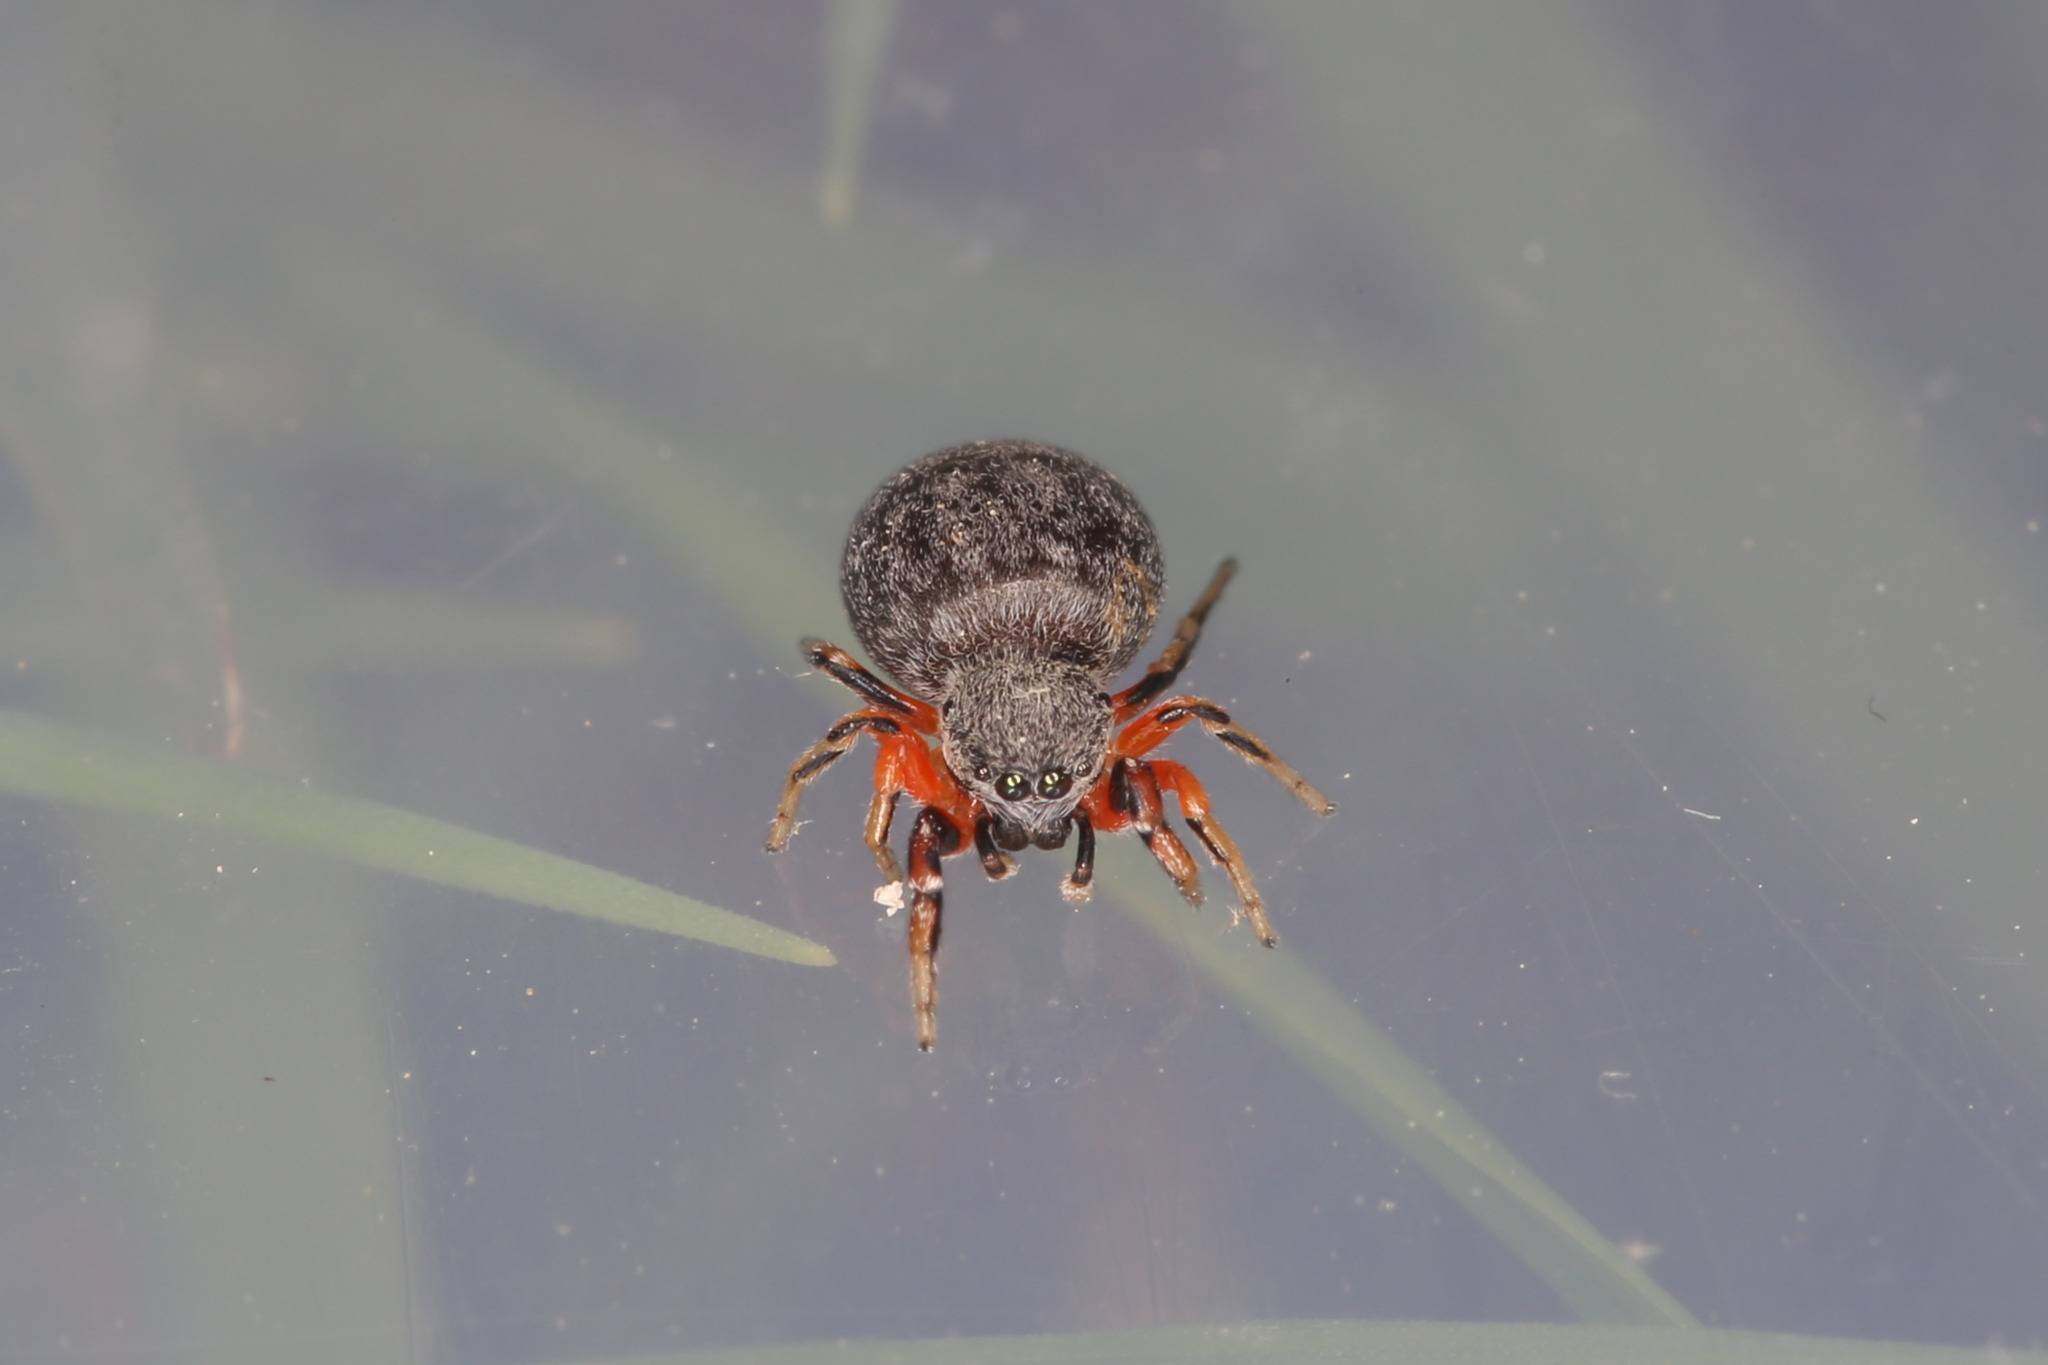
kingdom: Animalia
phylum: Arthropoda
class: Arachnida
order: Araneae
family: Salticidae
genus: Ballus
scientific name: Ballus rufipes
